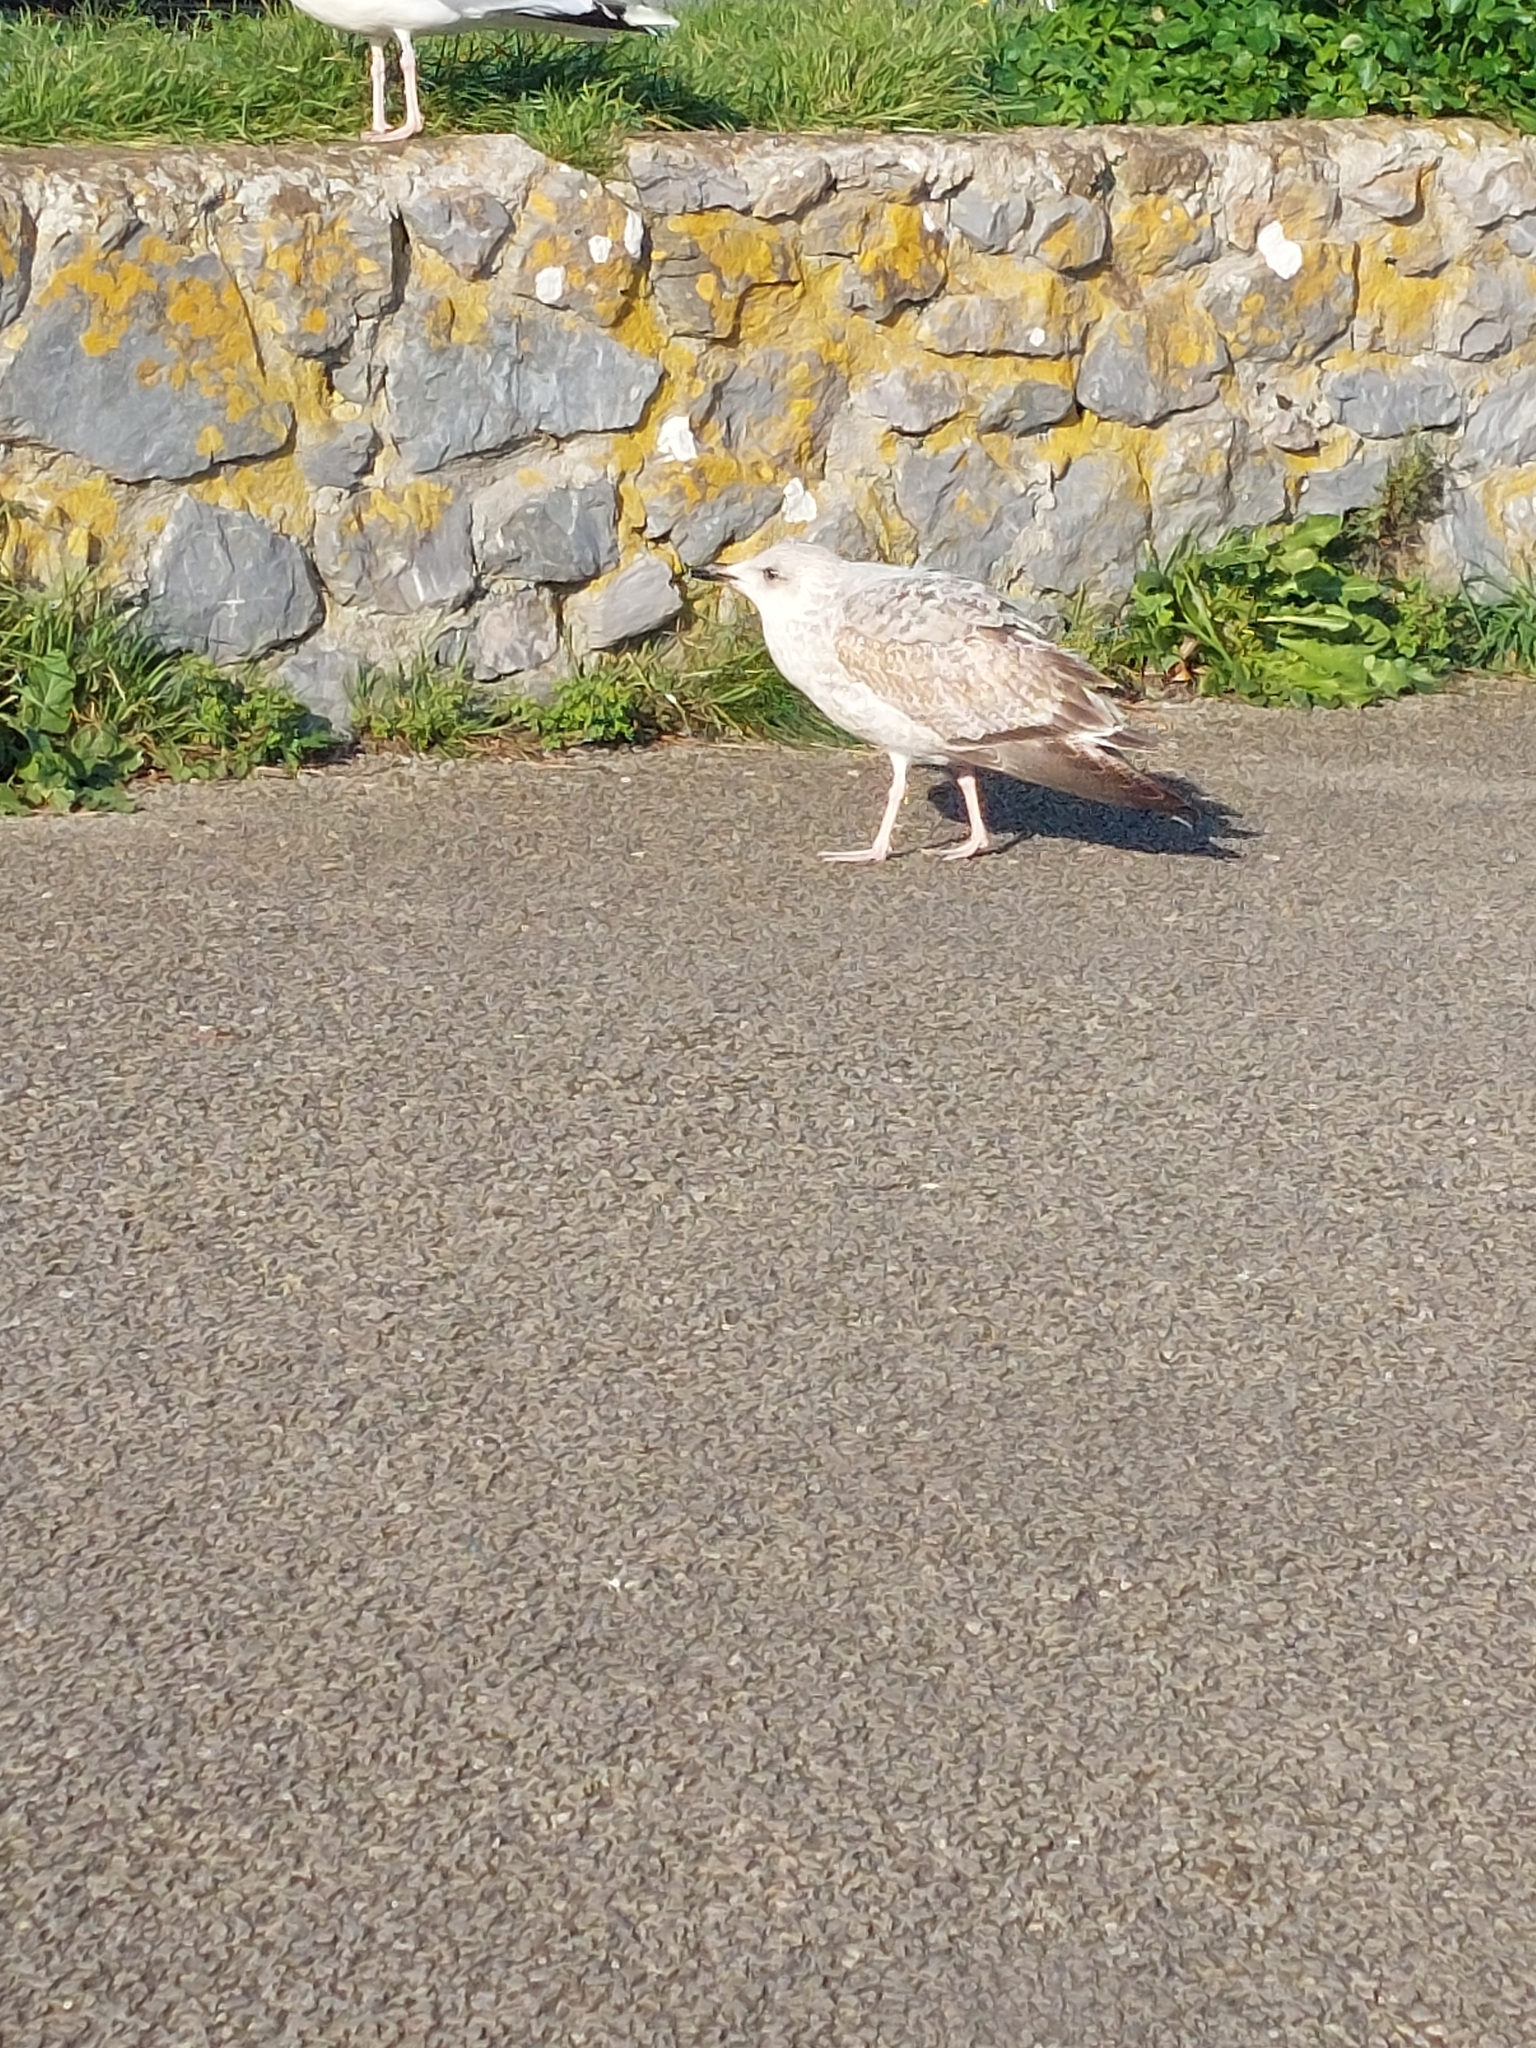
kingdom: Animalia
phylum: Chordata
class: Aves
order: Charadriiformes
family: Laridae
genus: Larus
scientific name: Larus argentatus
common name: Herring gull
